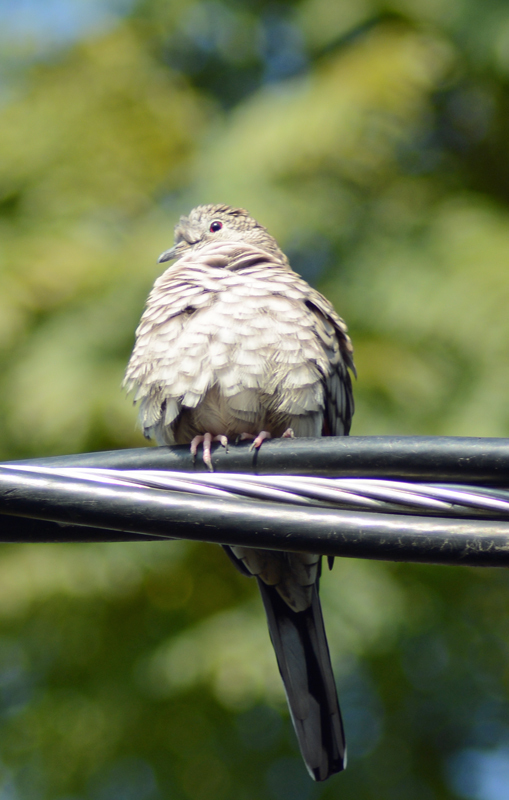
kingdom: Animalia
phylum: Chordata
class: Aves
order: Columbiformes
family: Columbidae
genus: Columbina
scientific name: Columbina inca
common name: Inca dove
